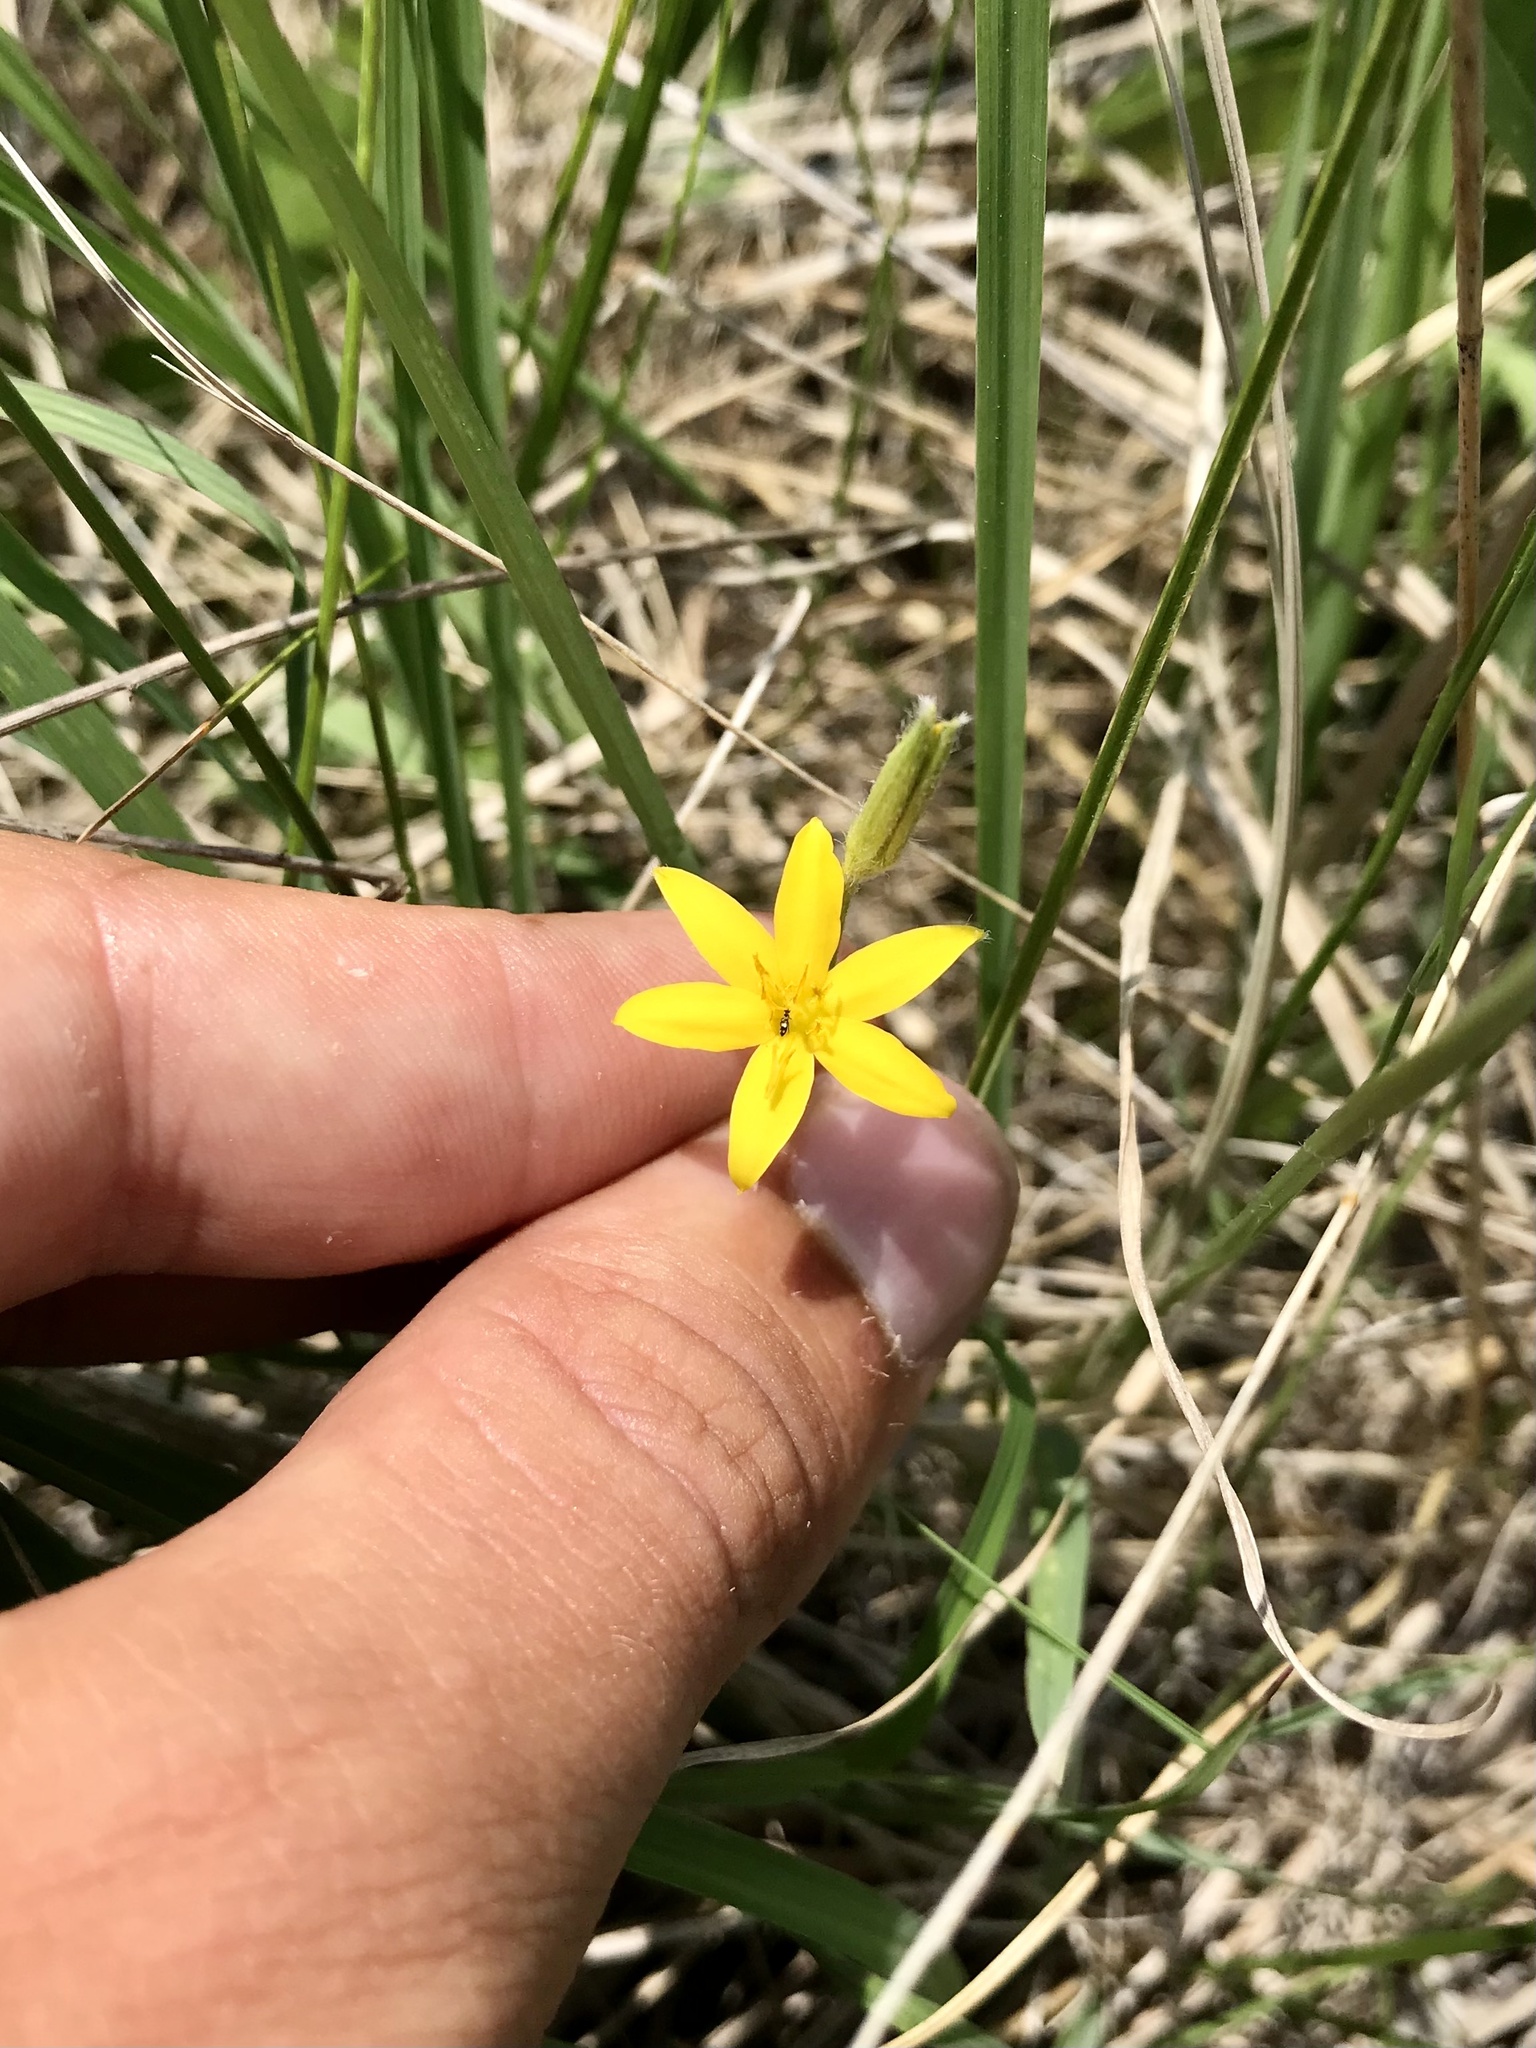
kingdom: Plantae
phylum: Tracheophyta
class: Liliopsida
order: Asparagales
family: Hypoxidaceae
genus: Hypoxis
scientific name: Hypoxis hirsuta
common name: Common goldstar
